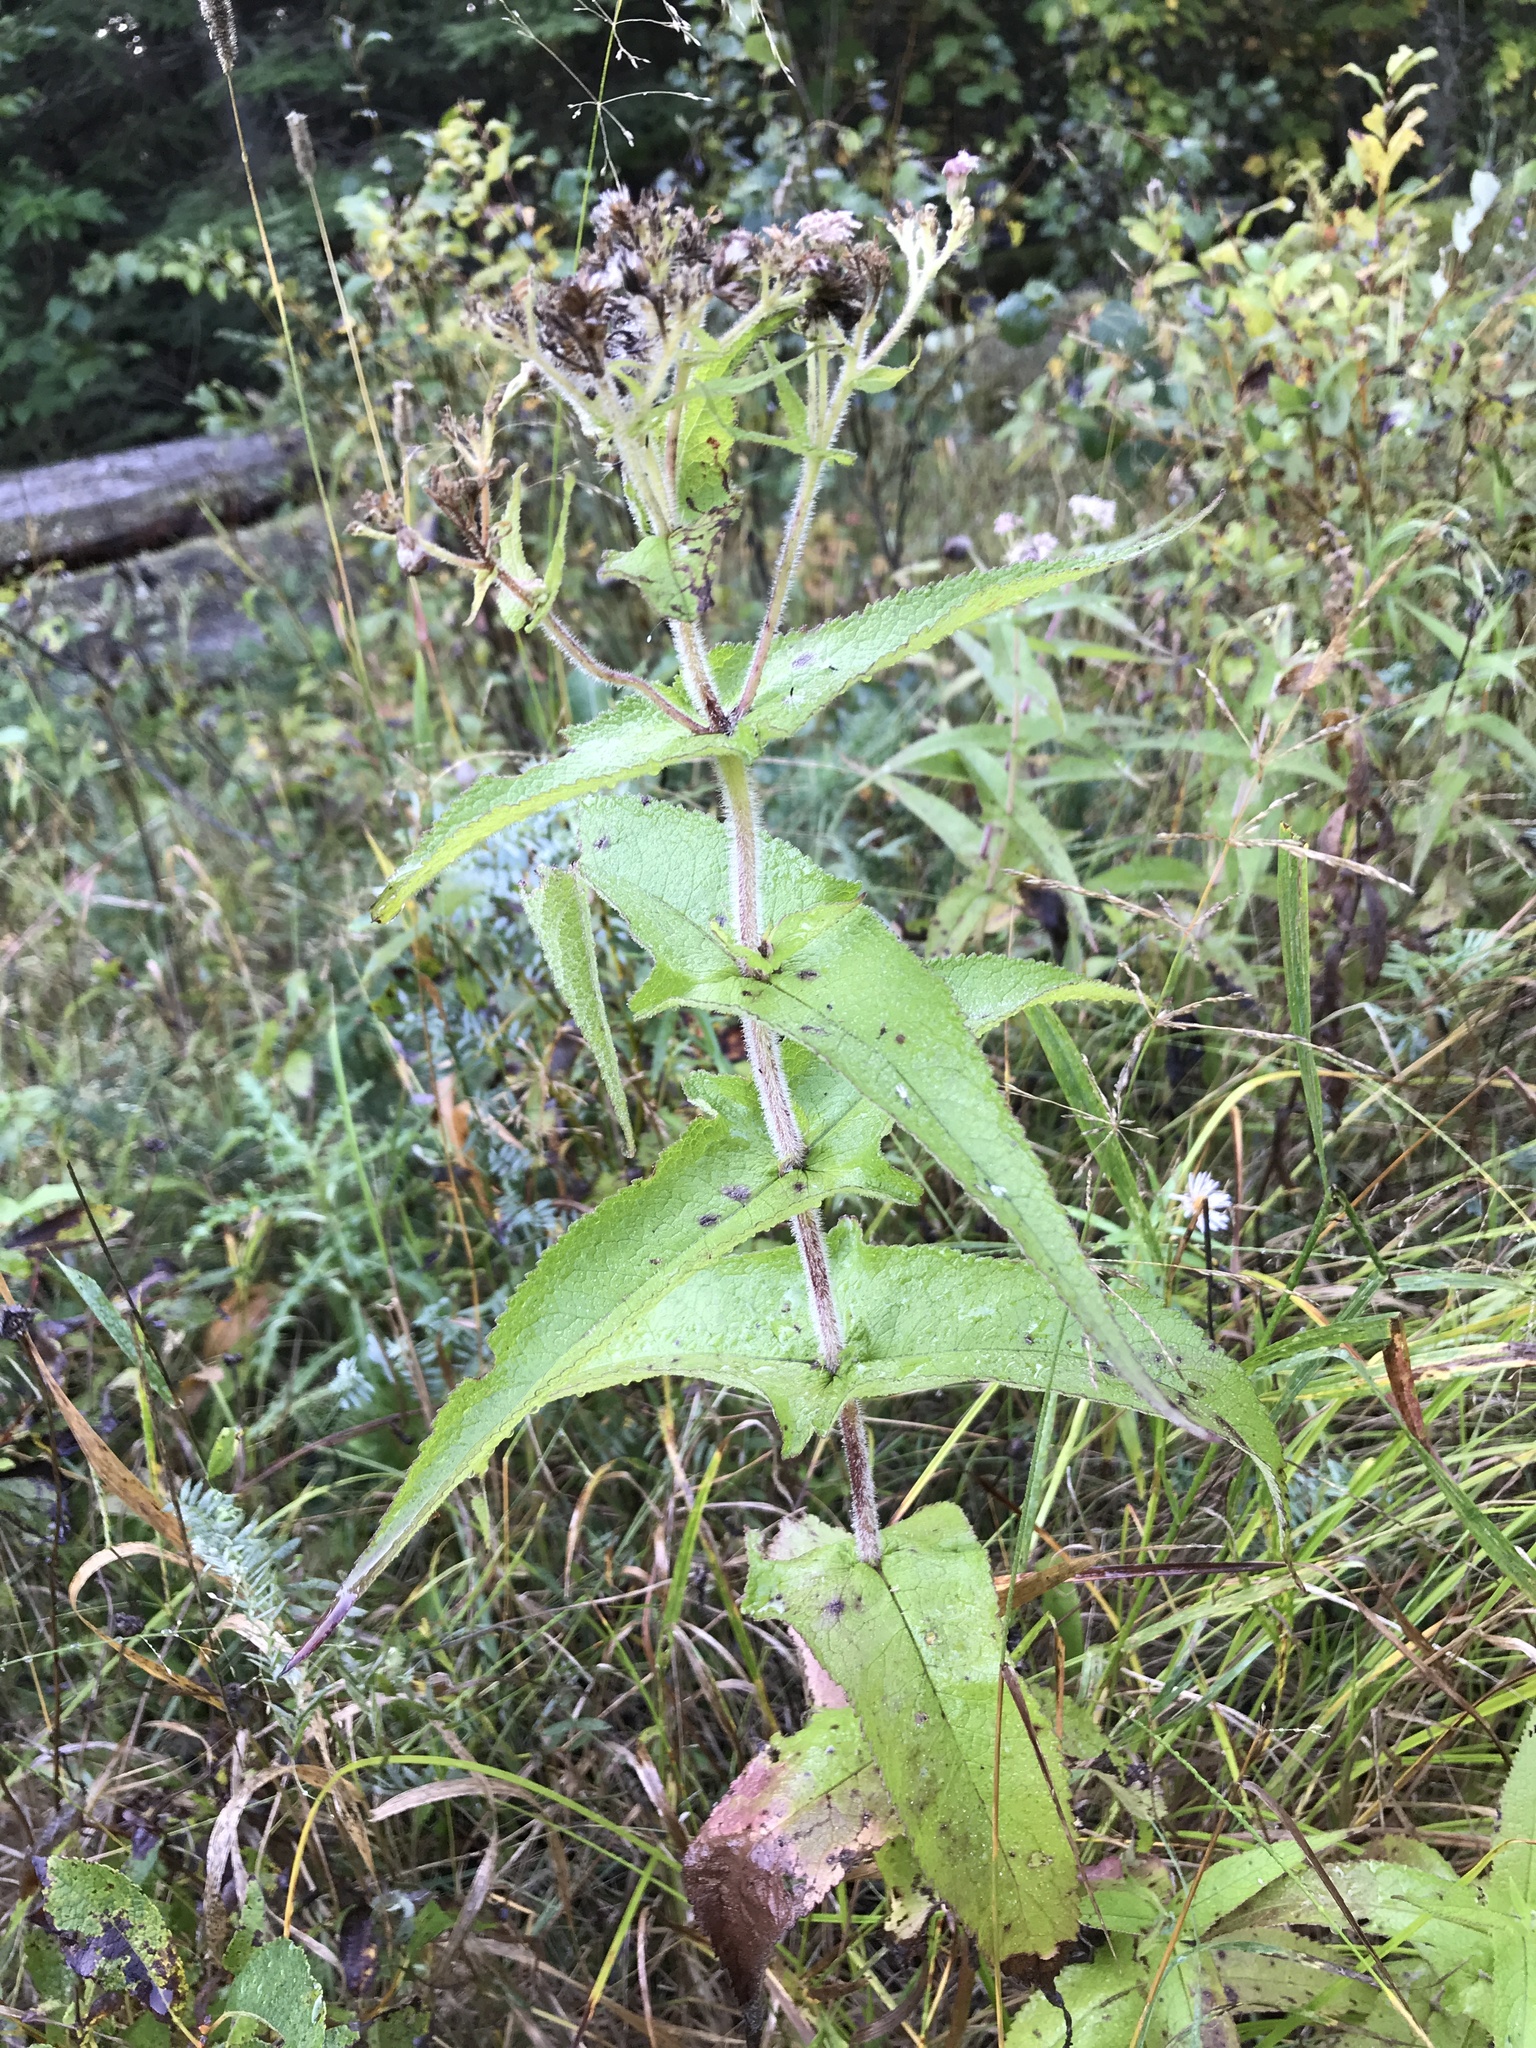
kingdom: Plantae
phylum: Tracheophyta
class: Magnoliopsida
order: Asterales
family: Asteraceae
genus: Eupatorium
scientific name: Eupatorium perfoliatum
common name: Boneset
